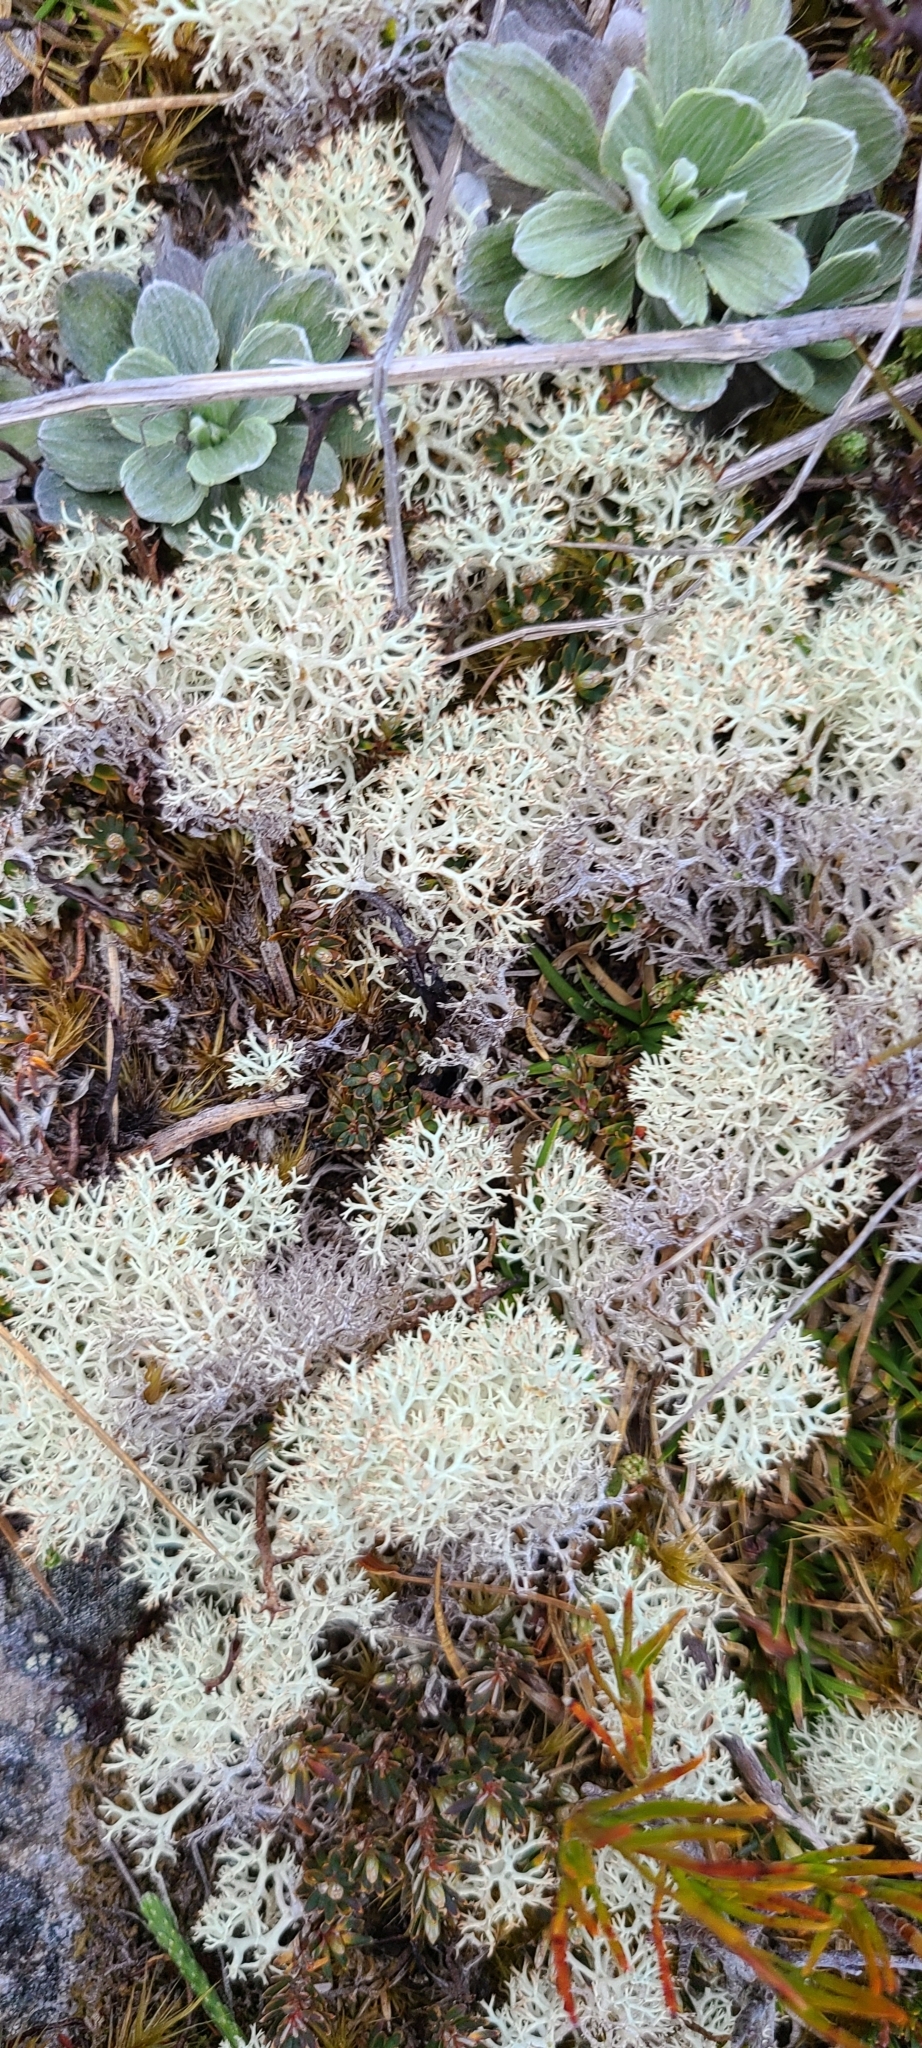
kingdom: Fungi
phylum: Ascomycota
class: Lecanoromycetes
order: Lecanorales
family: Cladoniaceae
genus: Cladonia
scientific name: Cladonia confusa
